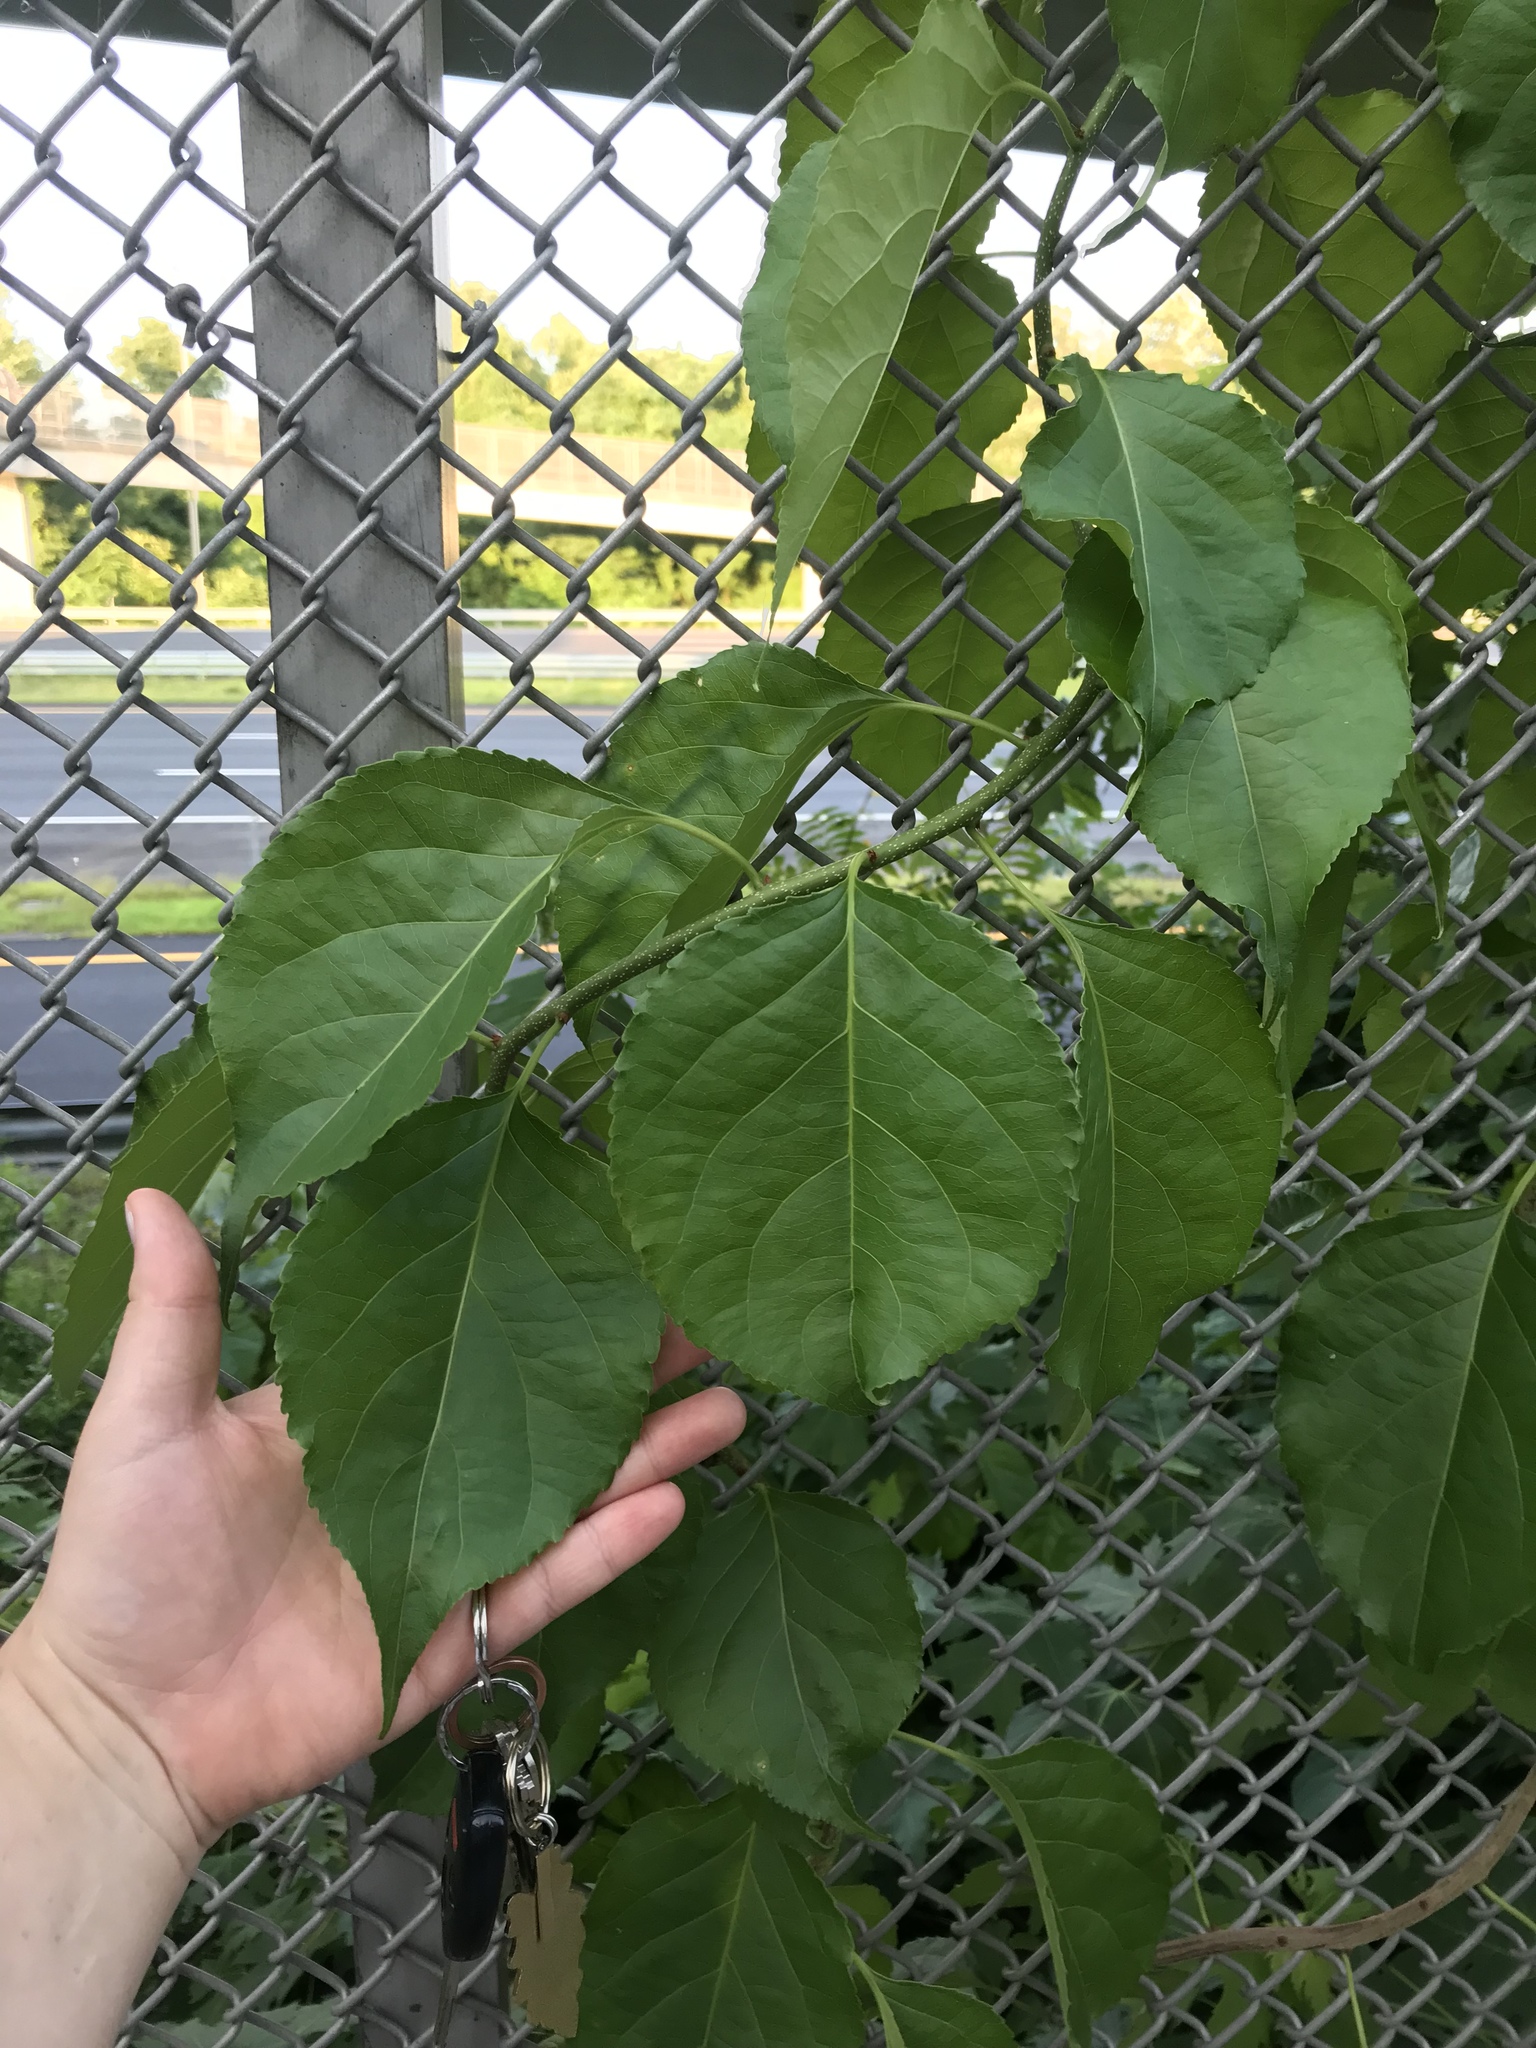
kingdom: Plantae
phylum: Tracheophyta
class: Magnoliopsida
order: Celastrales
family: Celastraceae
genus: Celastrus
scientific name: Celastrus orbiculatus
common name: Oriental bittersweet
